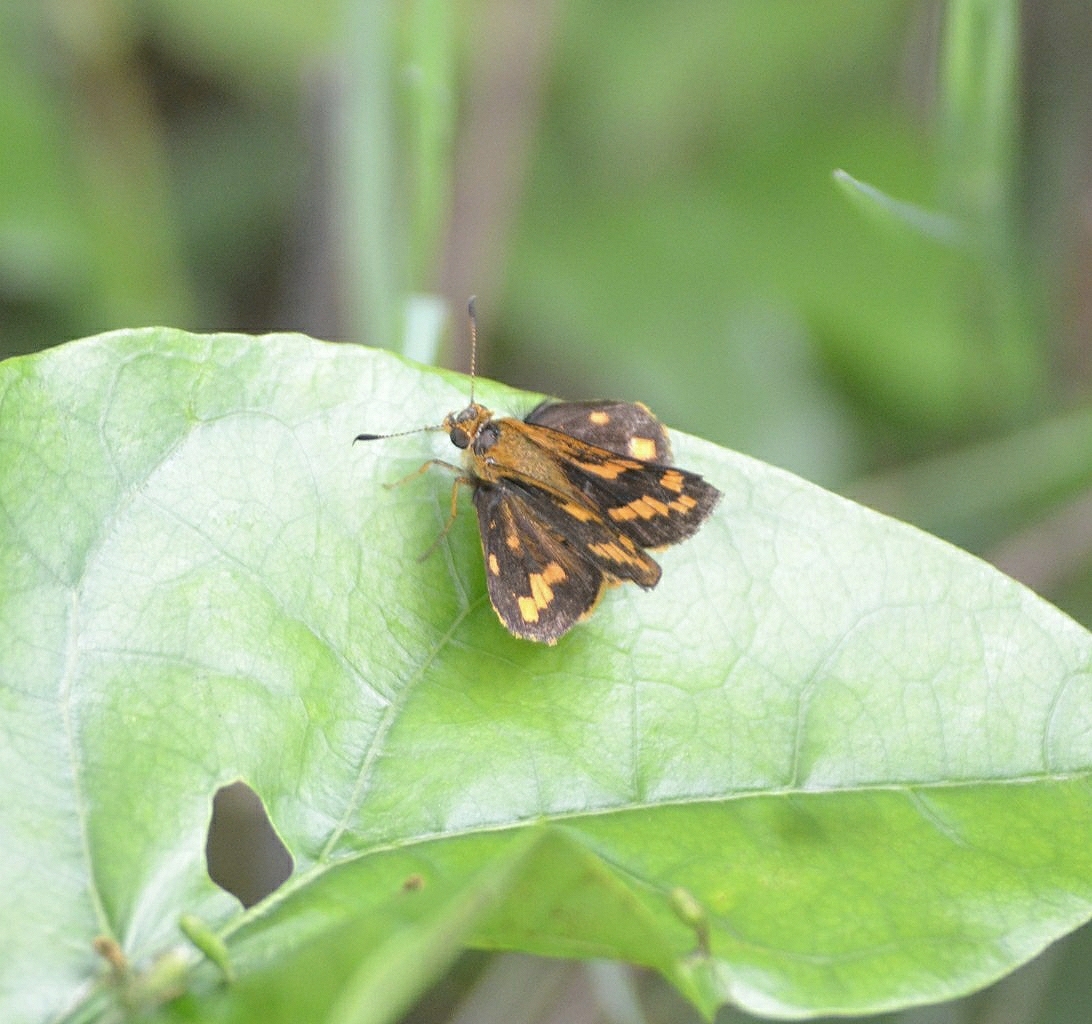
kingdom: Animalia
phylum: Arthropoda
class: Insecta
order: Lepidoptera
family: Hesperiidae
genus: Potanthus
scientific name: Potanthus pallida
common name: Pallid dart
